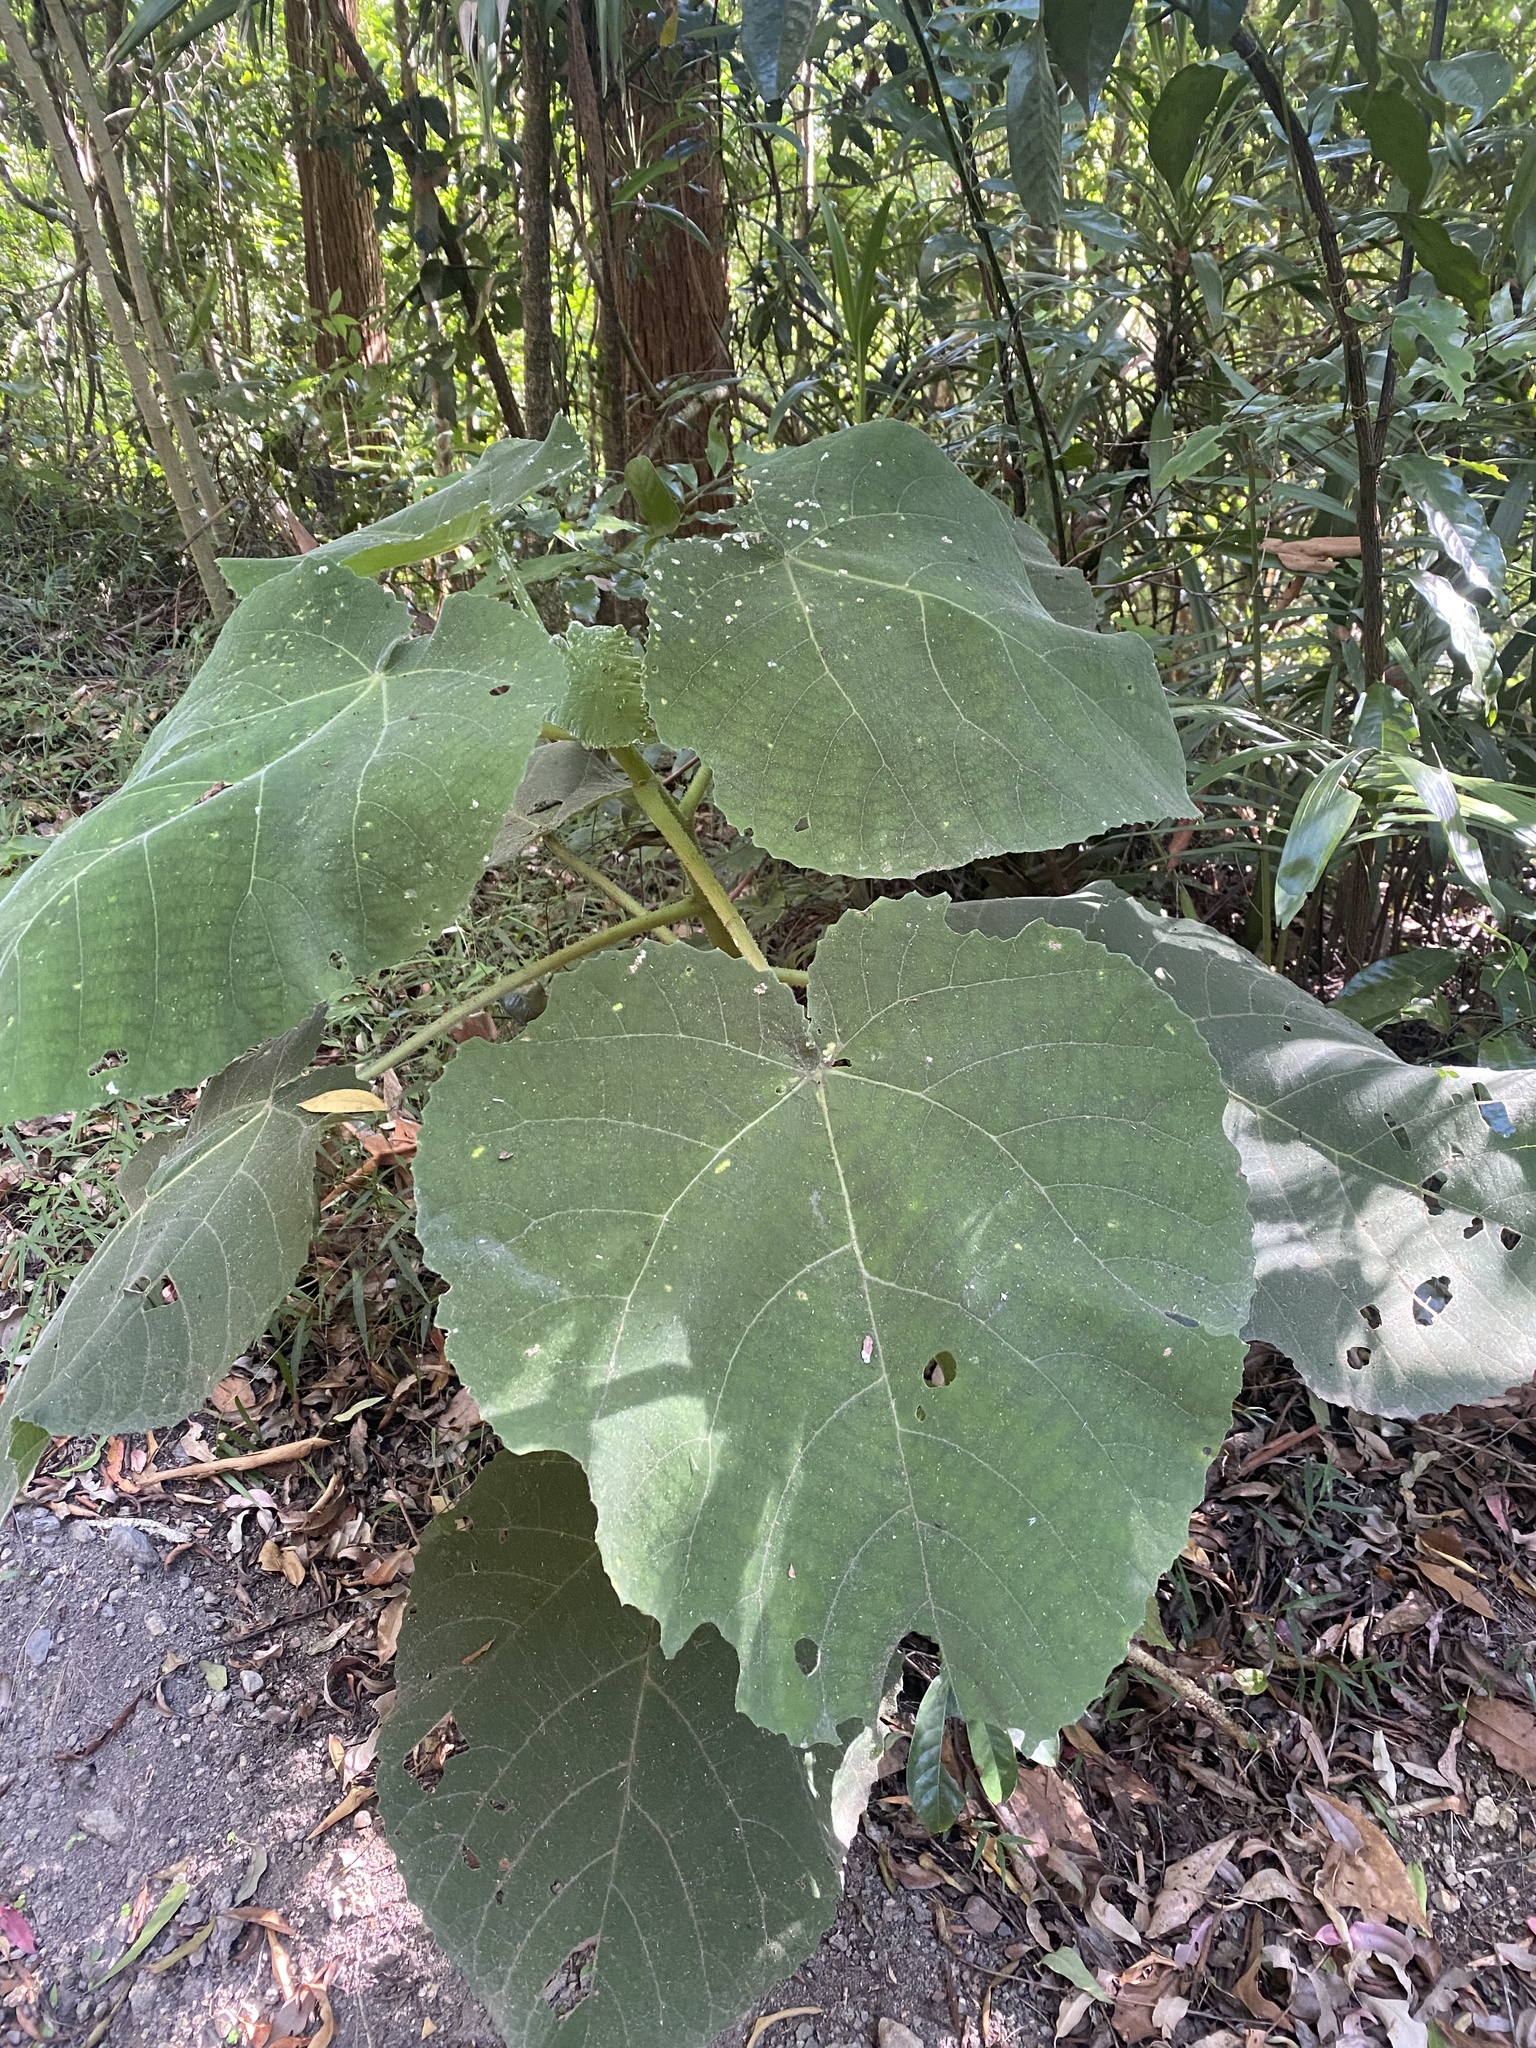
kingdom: Plantae
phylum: Tracheophyta
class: Magnoliopsida
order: Rosales
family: Urticaceae
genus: Dendrocnide
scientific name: Dendrocnide excelsa
